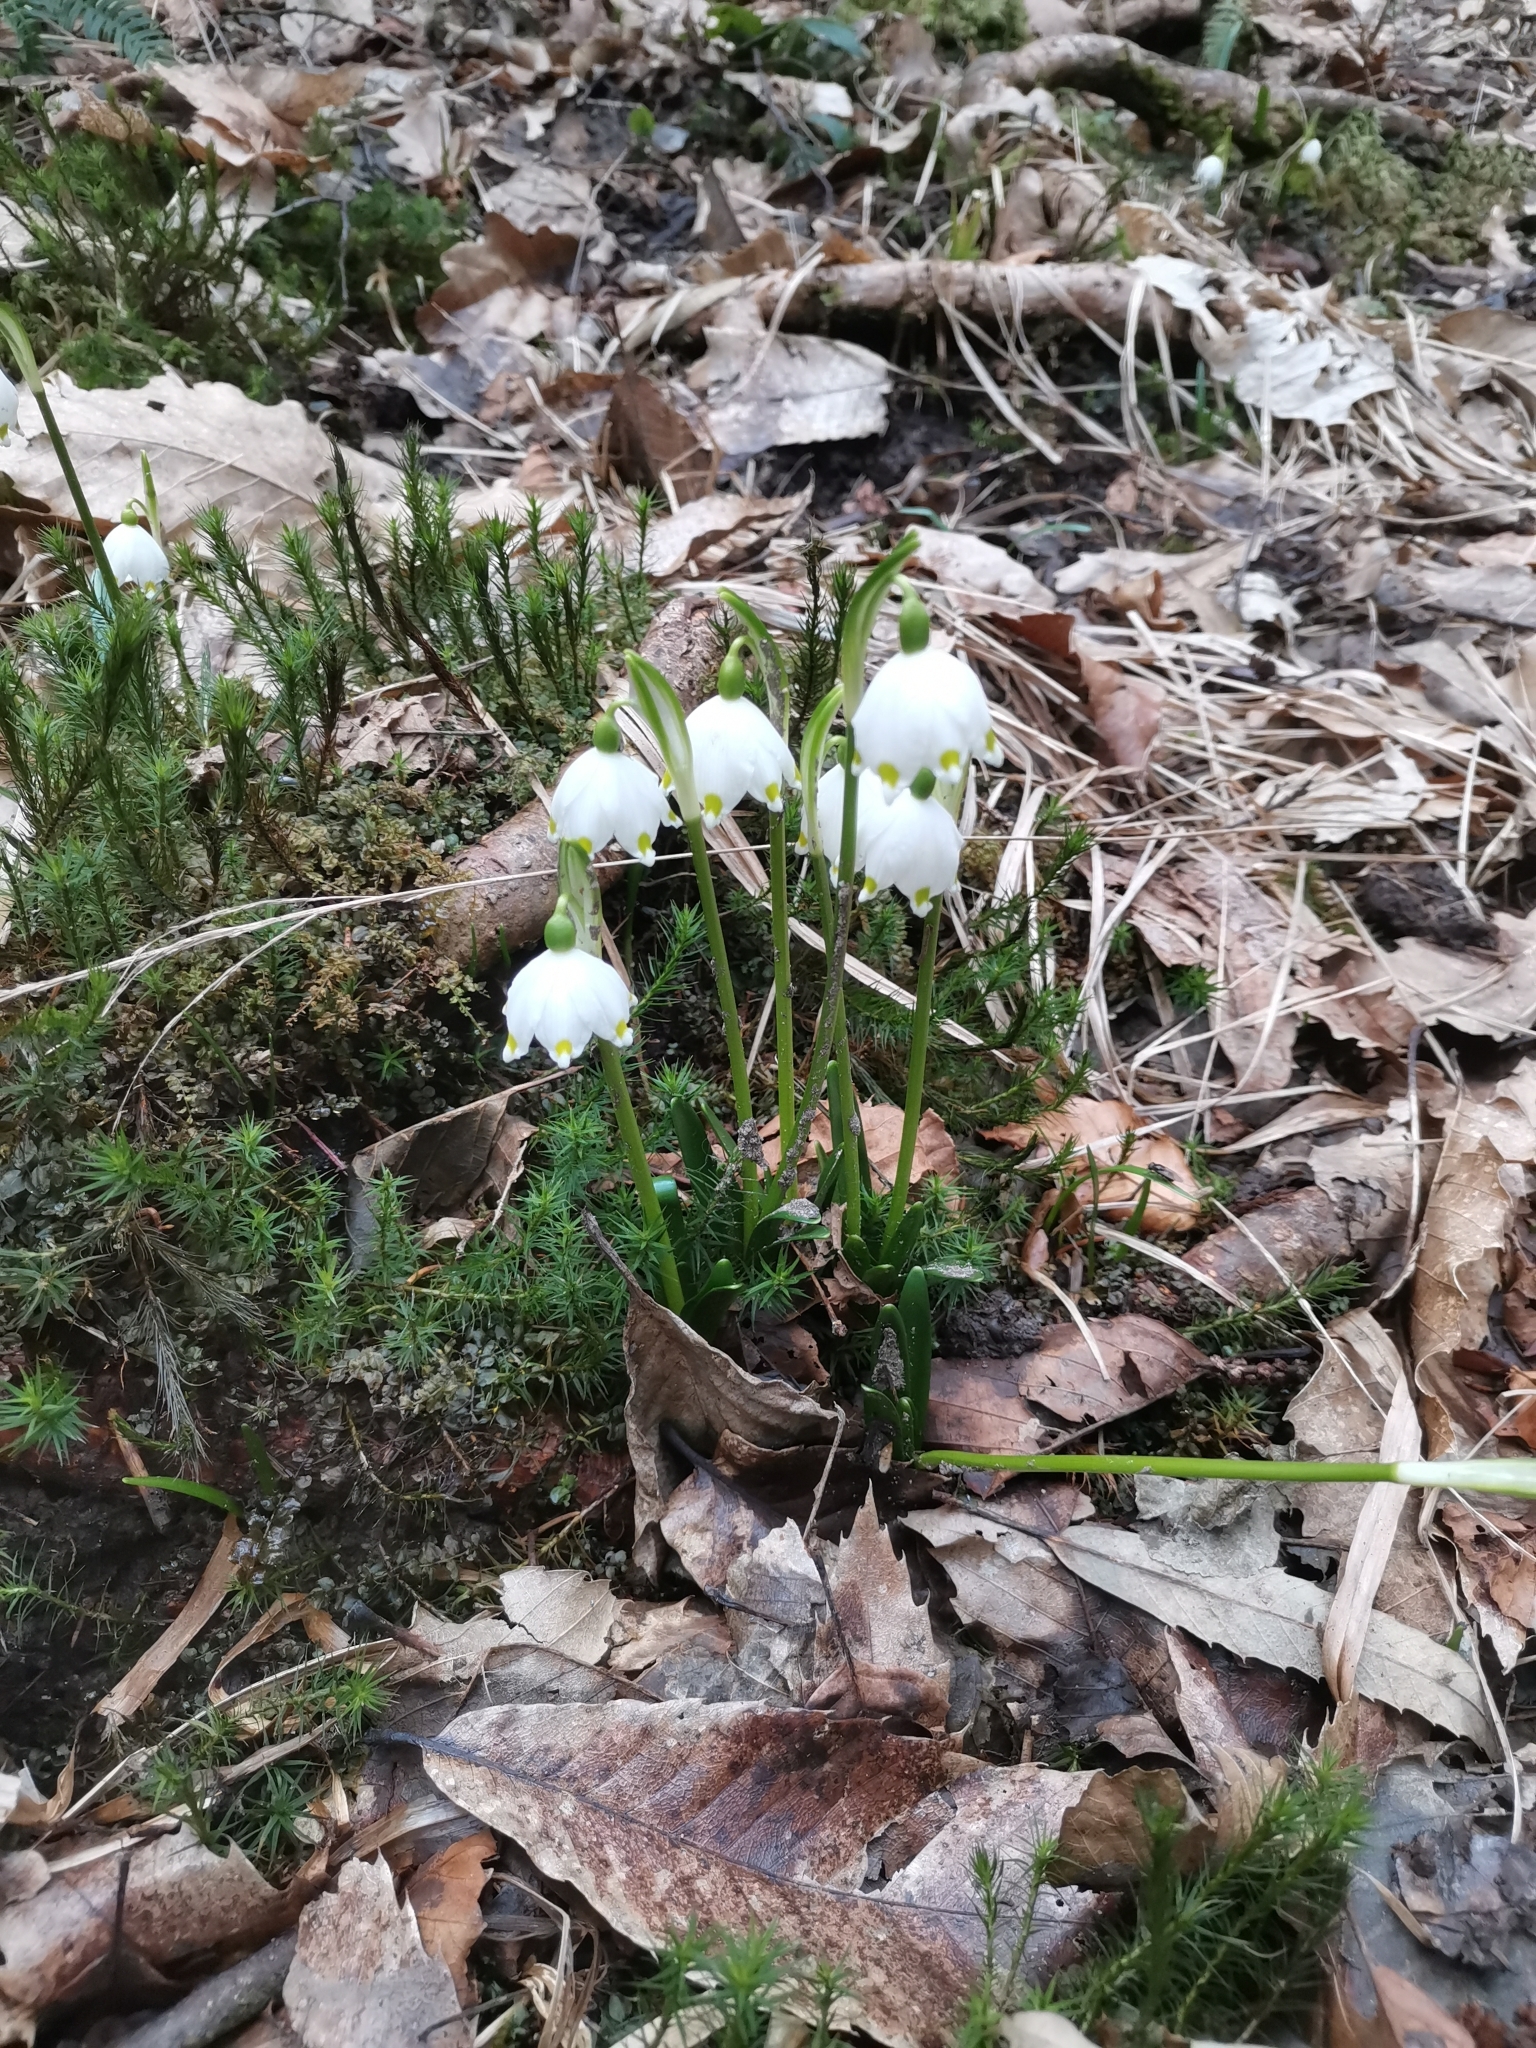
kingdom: Plantae
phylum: Tracheophyta
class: Liliopsida
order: Asparagales
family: Amaryllidaceae
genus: Leucojum
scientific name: Leucojum vernum
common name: Spring snowflake
